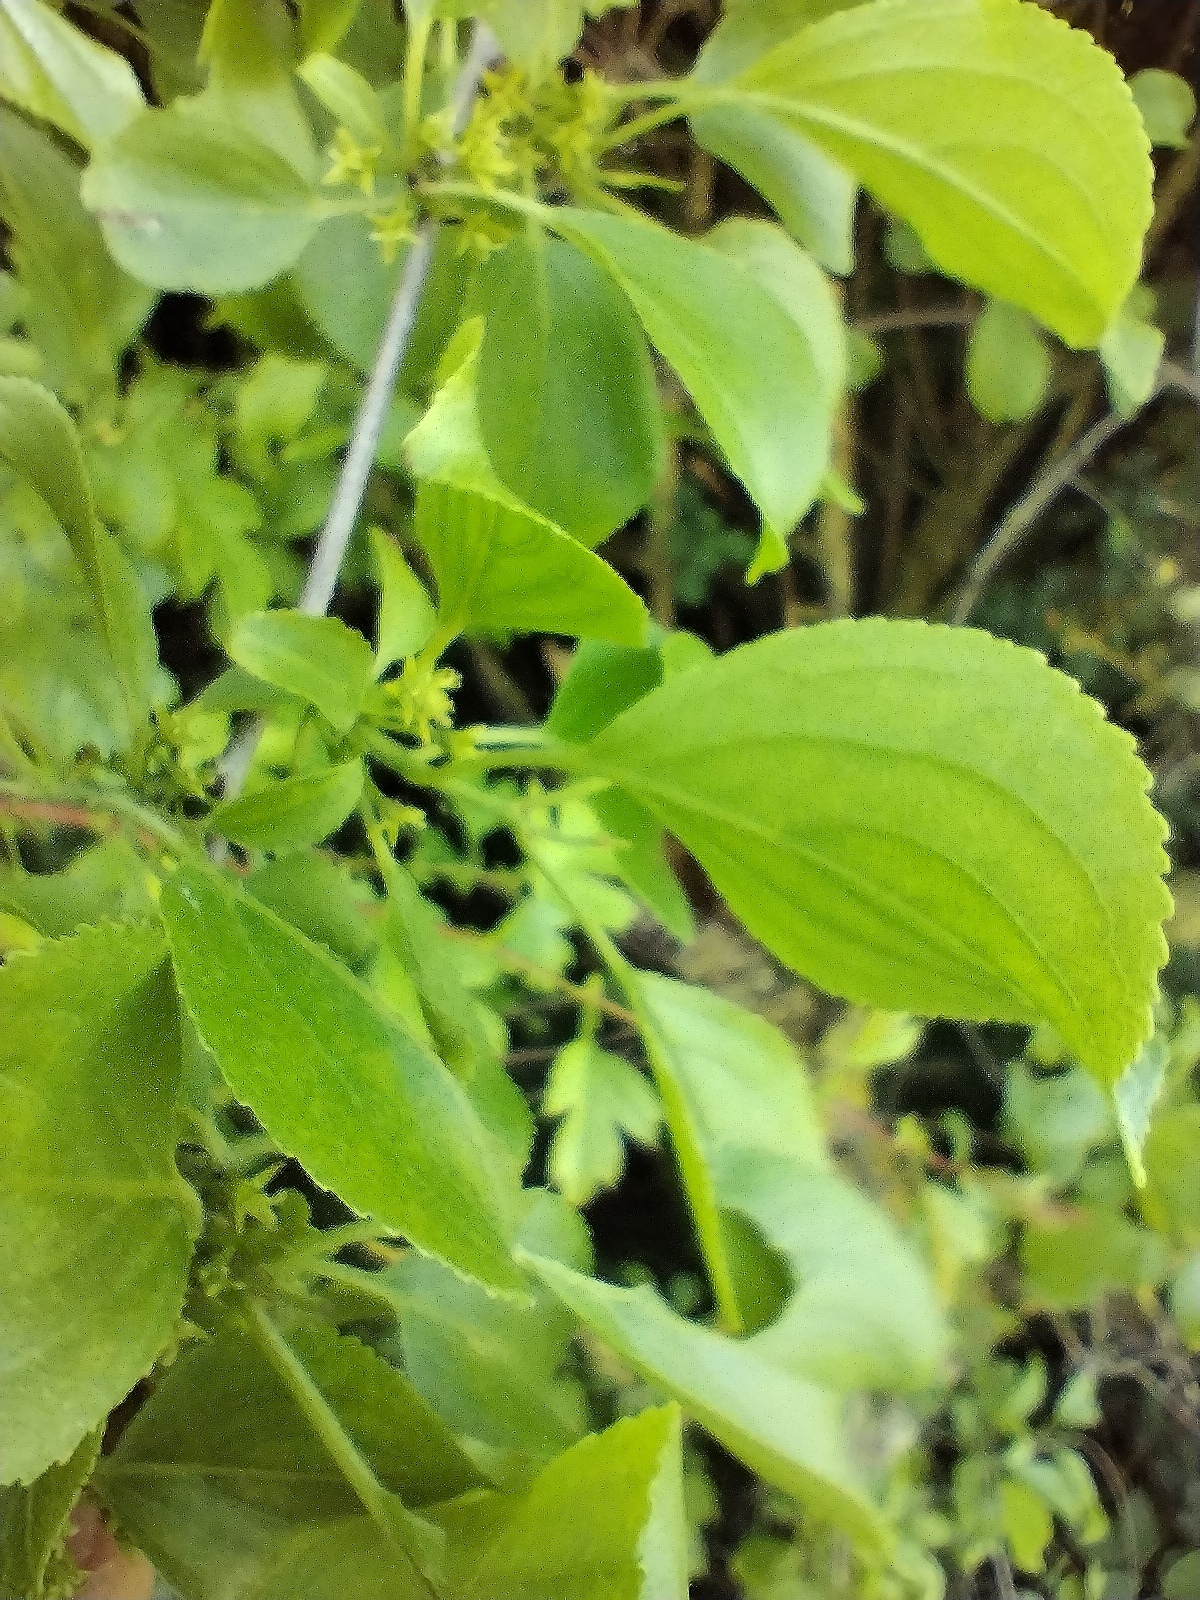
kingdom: Plantae
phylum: Tracheophyta
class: Magnoliopsida
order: Rosales
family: Rhamnaceae
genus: Rhamnus
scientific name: Rhamnus cathartica
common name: Common buckthorn
